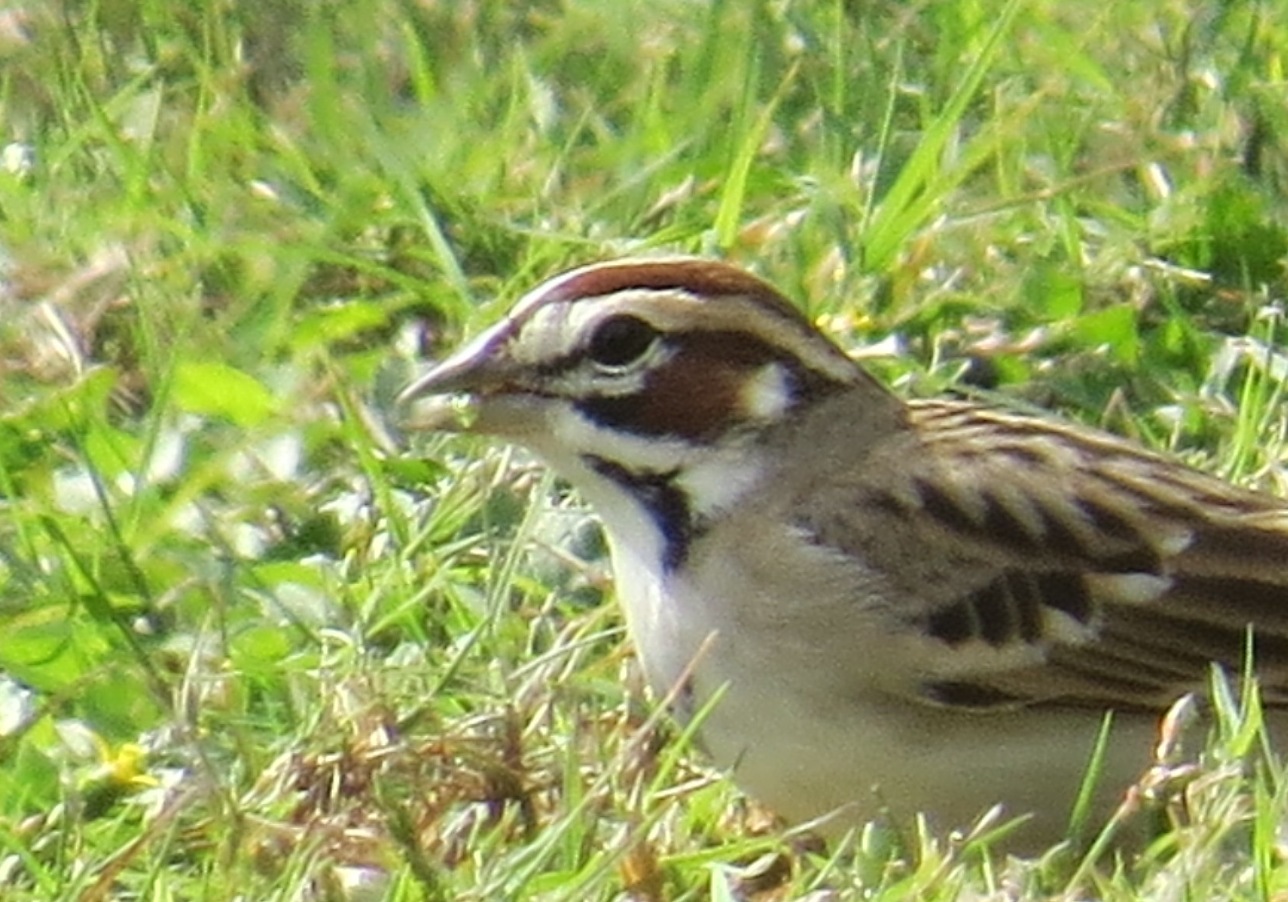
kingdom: Animalia
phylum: Chordata
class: Aves
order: Passeriformes
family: Passerellidae
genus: Chondestes
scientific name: Chondestes grammacus
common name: Lark sparrow
